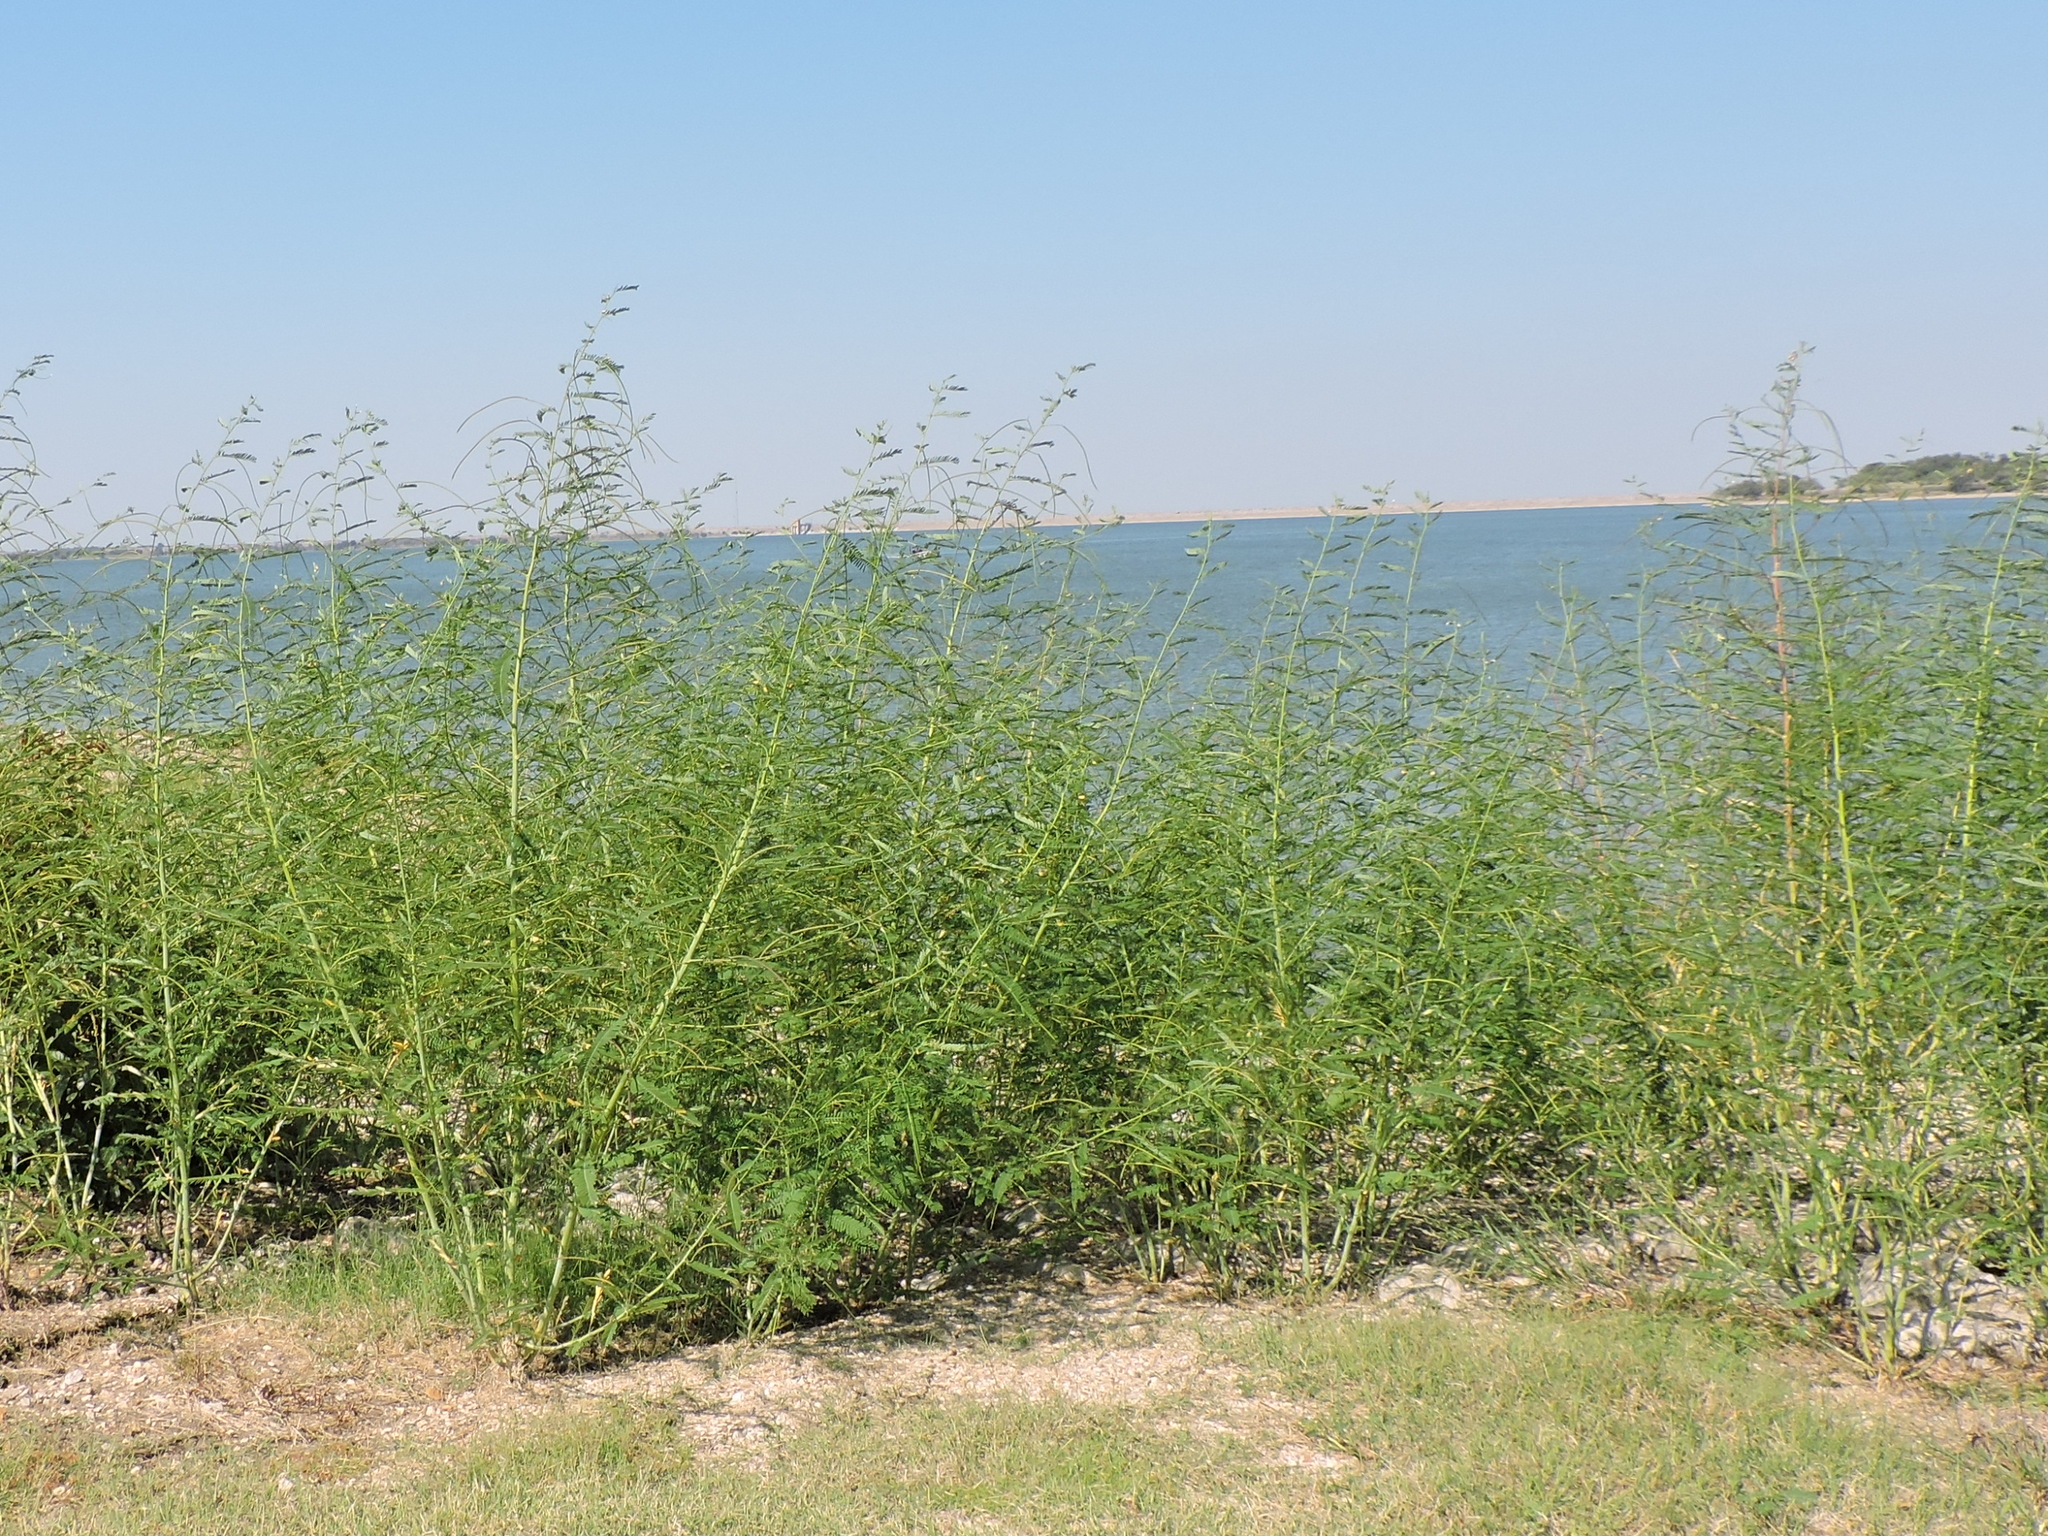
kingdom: Plantae
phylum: Tracheophyta
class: Magnoliopsida
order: Fabales
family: Fabaceae
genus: Sesbania
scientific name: Sesbania herbacea
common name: Bigpod sesbania
